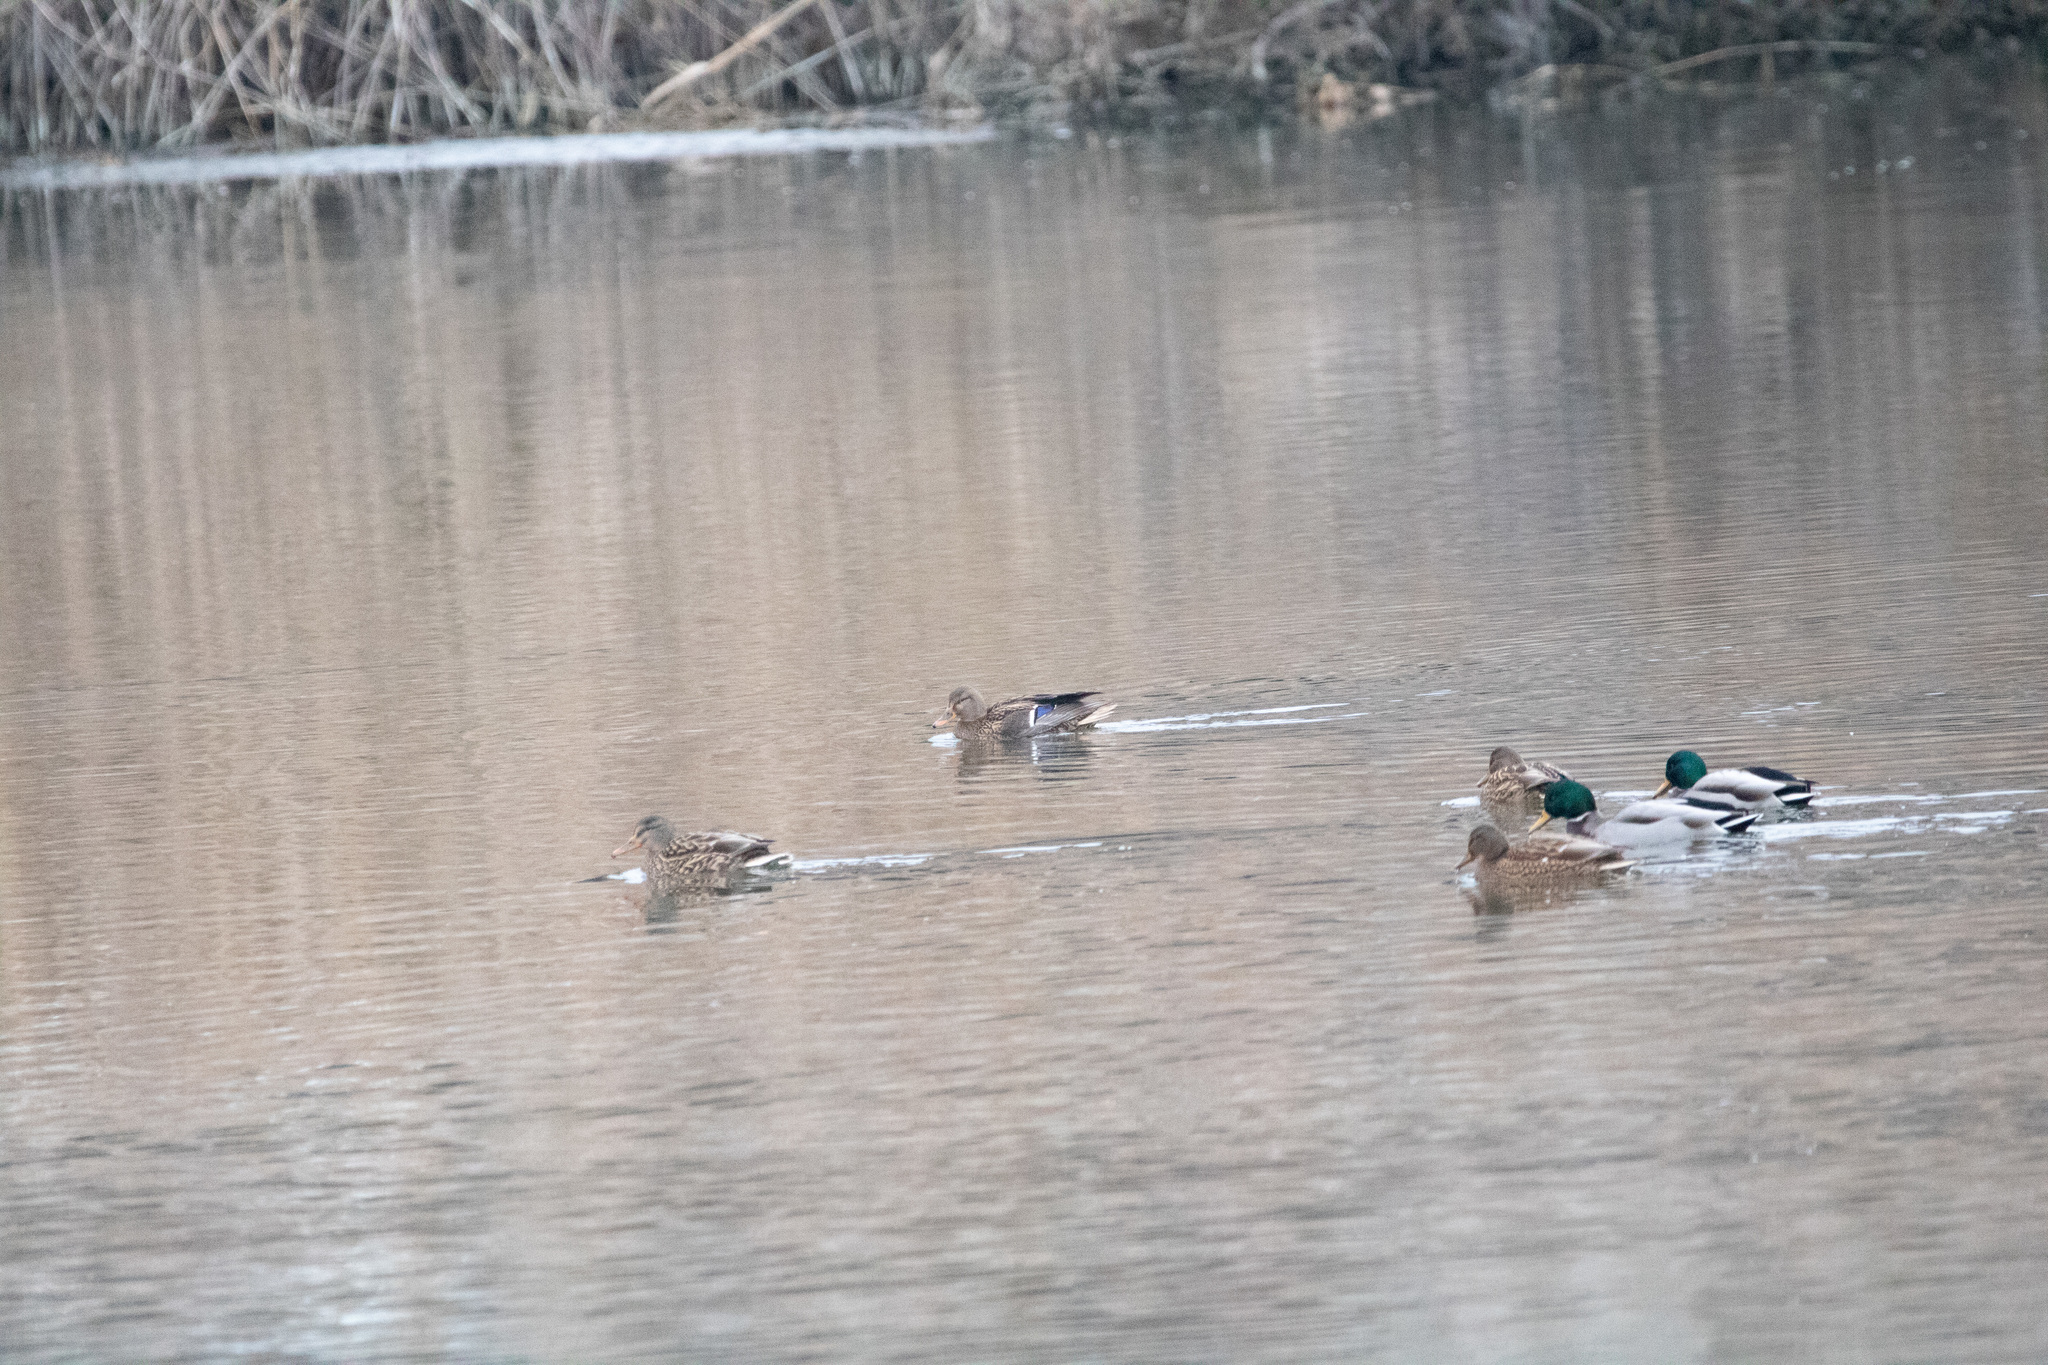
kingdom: Animalia
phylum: Chordata
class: Aves
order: Anseriformes
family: Anatidae
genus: Anas
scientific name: Anas platyrhynchos
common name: Mallard
